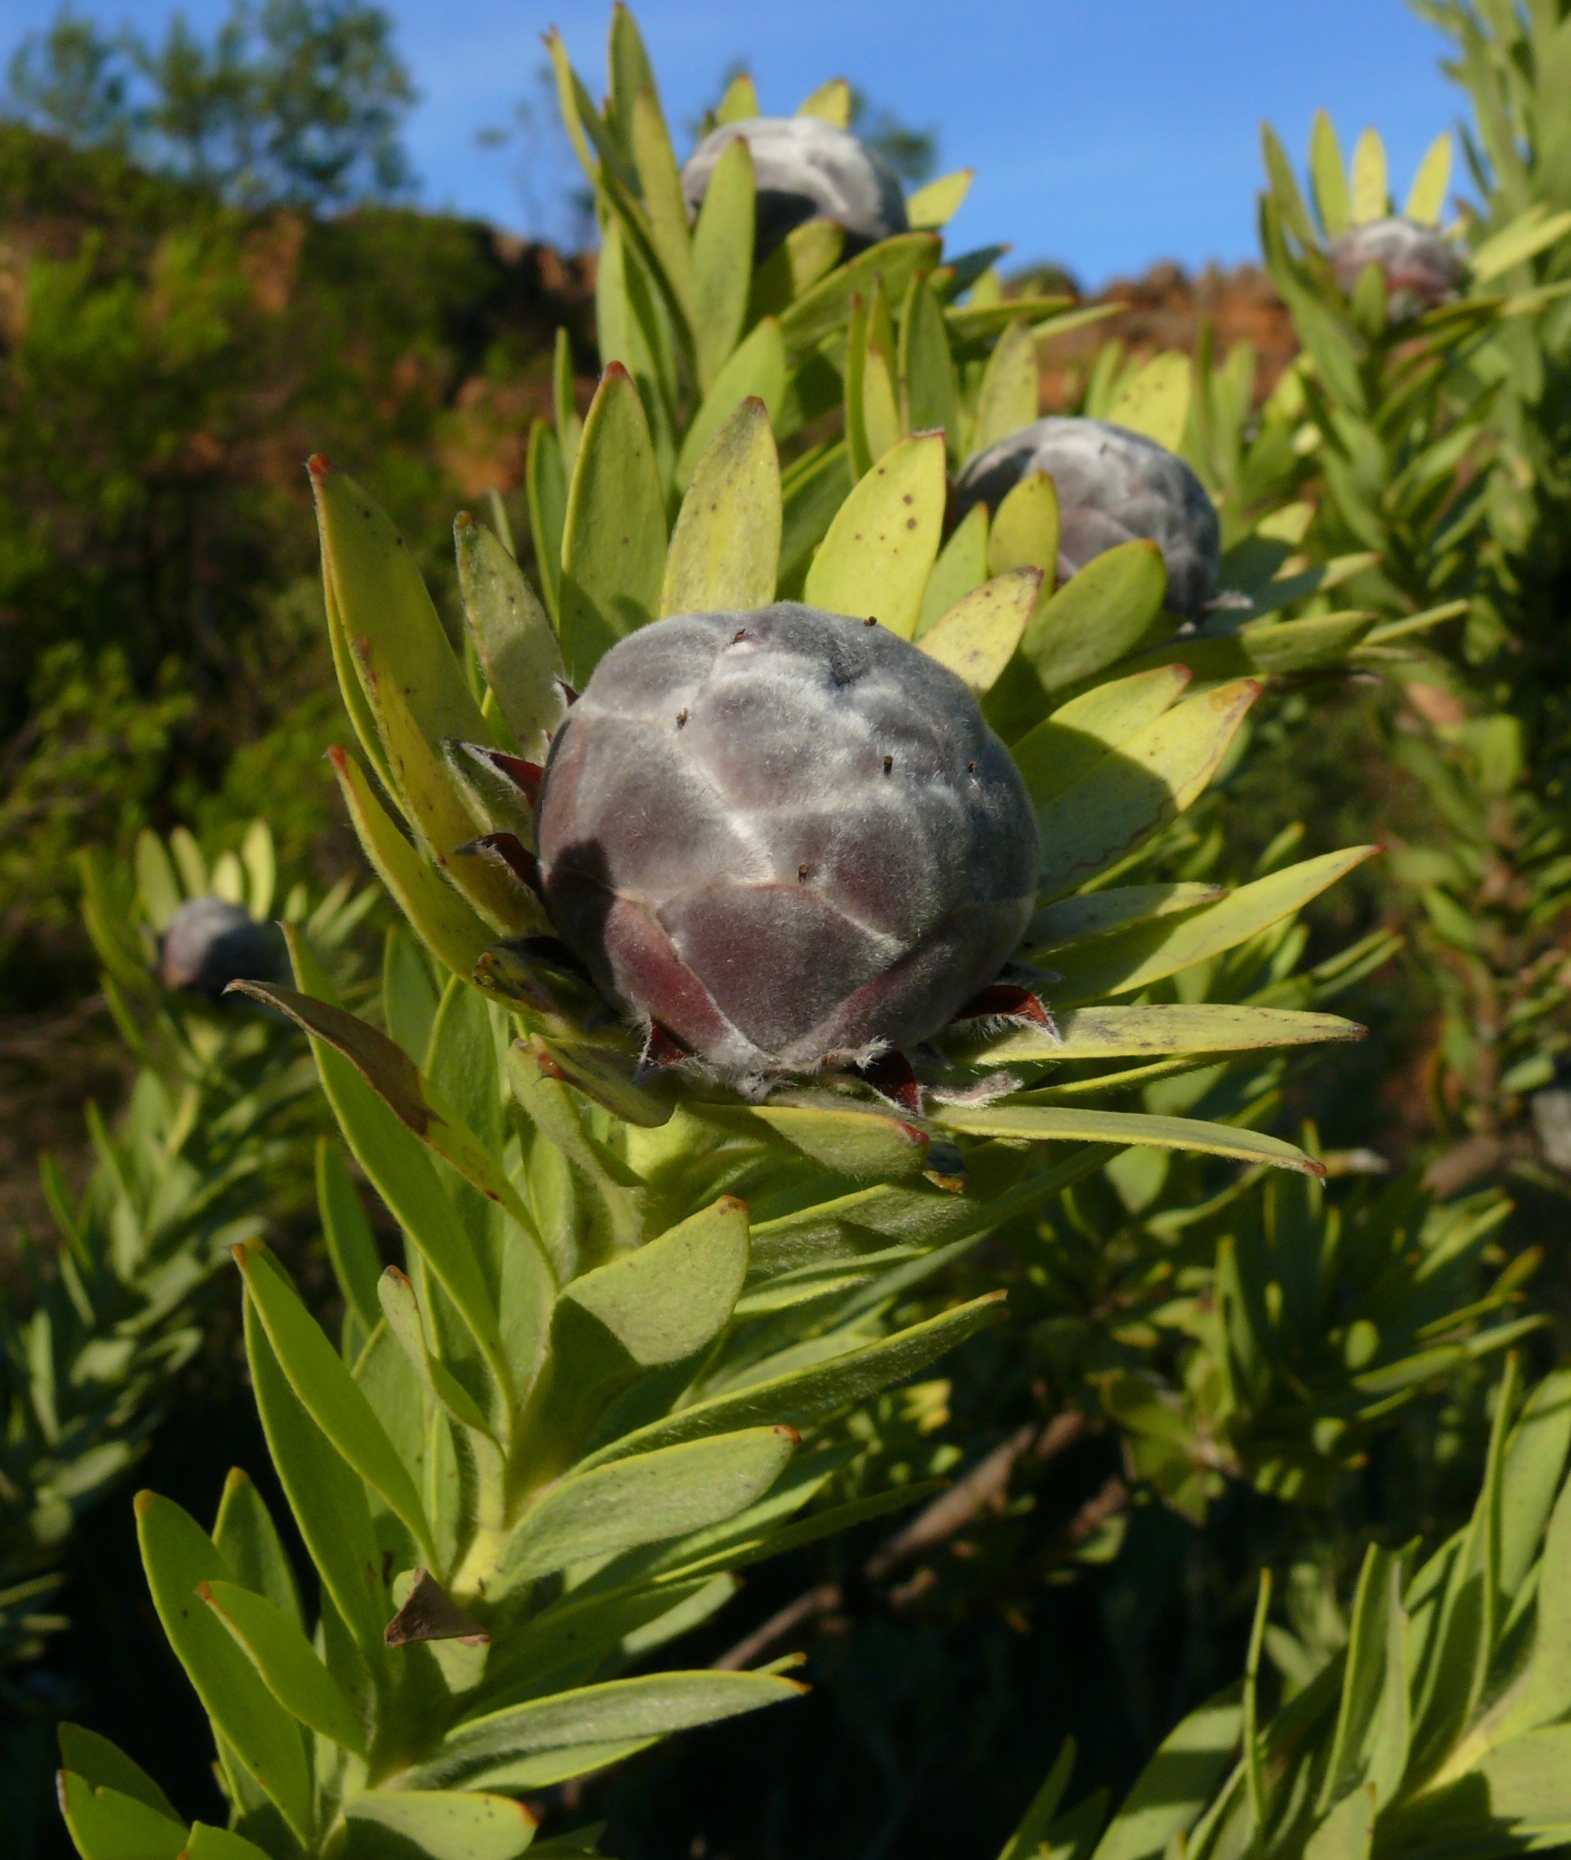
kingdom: Plantae
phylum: Tracheophyta
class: Magnoliopsida
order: Proteales
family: Proteaceae
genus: Leucadendron
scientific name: Leucadendron pubescens
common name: Grey conebush
